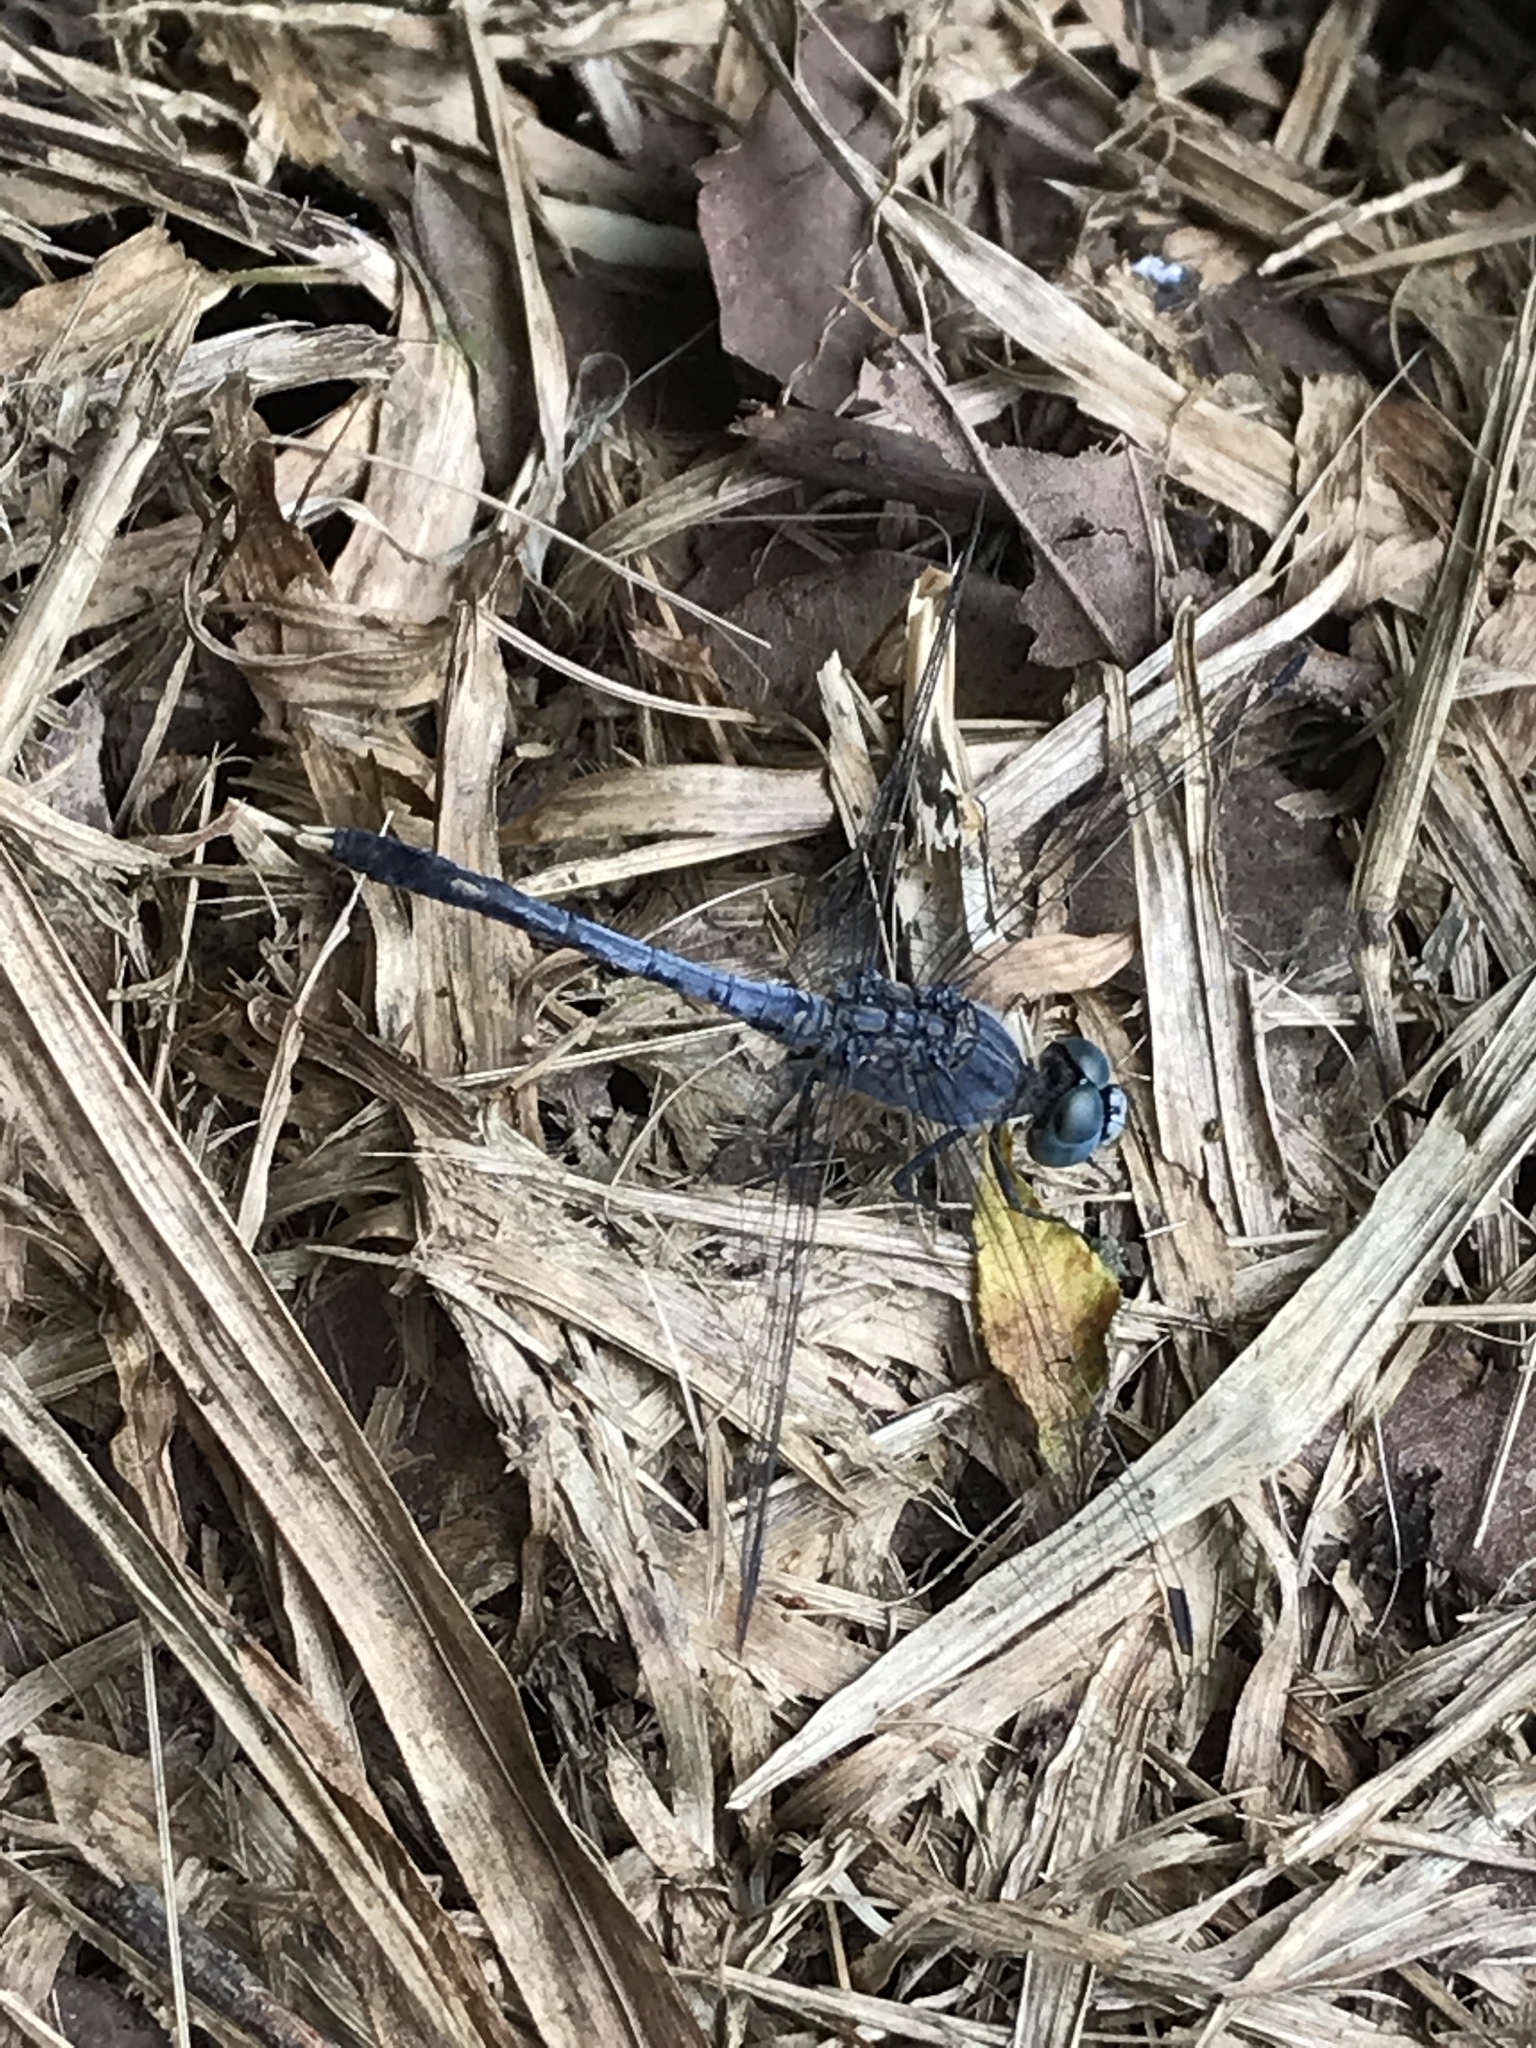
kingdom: Animalia
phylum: Arthropoda
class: Insecta
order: Odonata
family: Libellulidae
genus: Diplacodes
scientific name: Diplacodes trivialis
